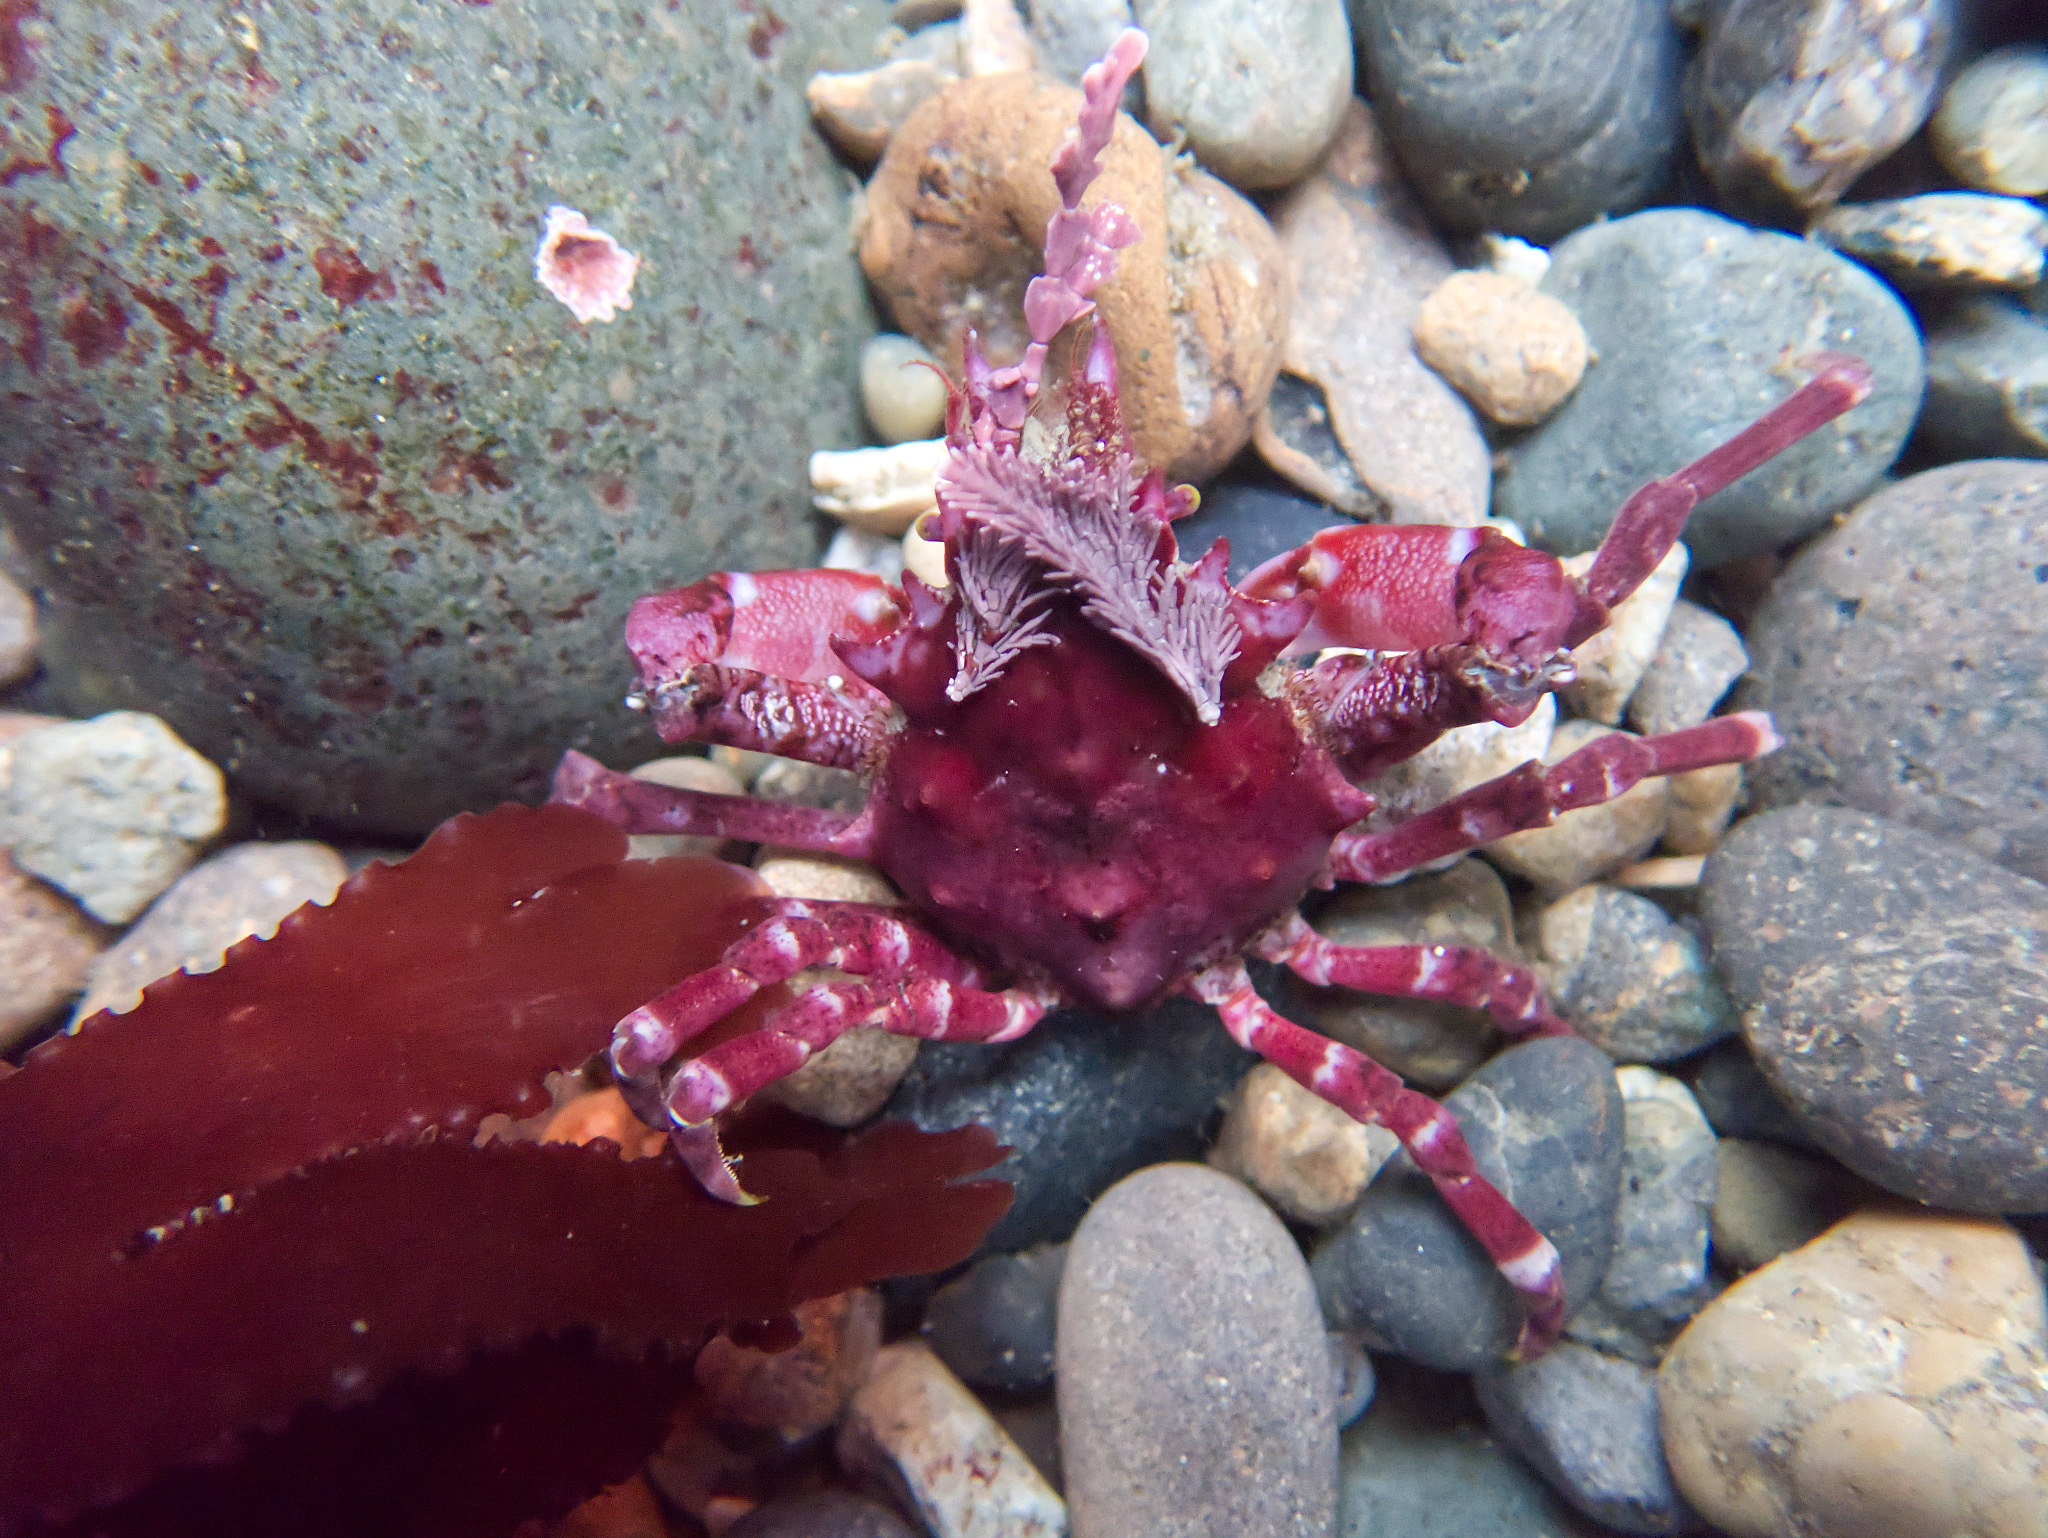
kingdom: Animalia
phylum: Arthropoda
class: Malacostraca
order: Decapoda
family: Epialtidae
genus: Pugettia
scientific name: Pugettia richii
